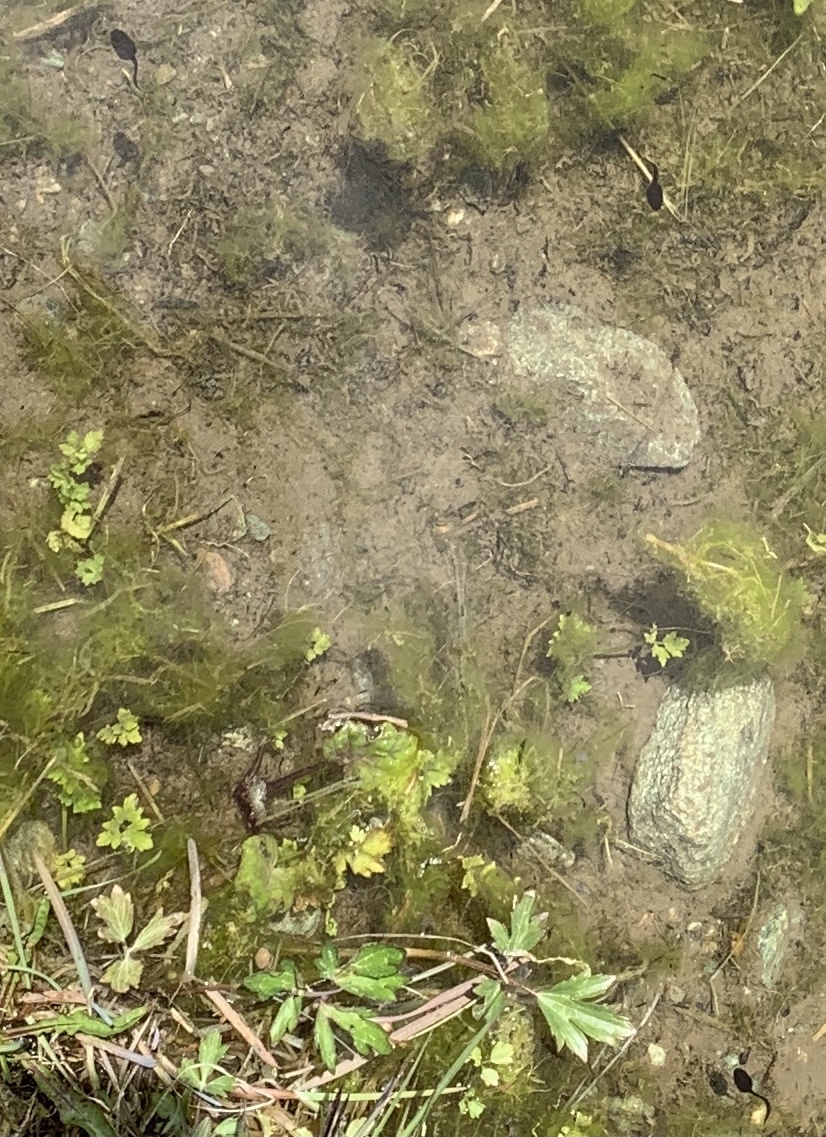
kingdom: Animalia
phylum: Chordata
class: Amphibia
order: Anura
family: Ranidae
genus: Rana
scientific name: Rana temporaria
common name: Common frog
